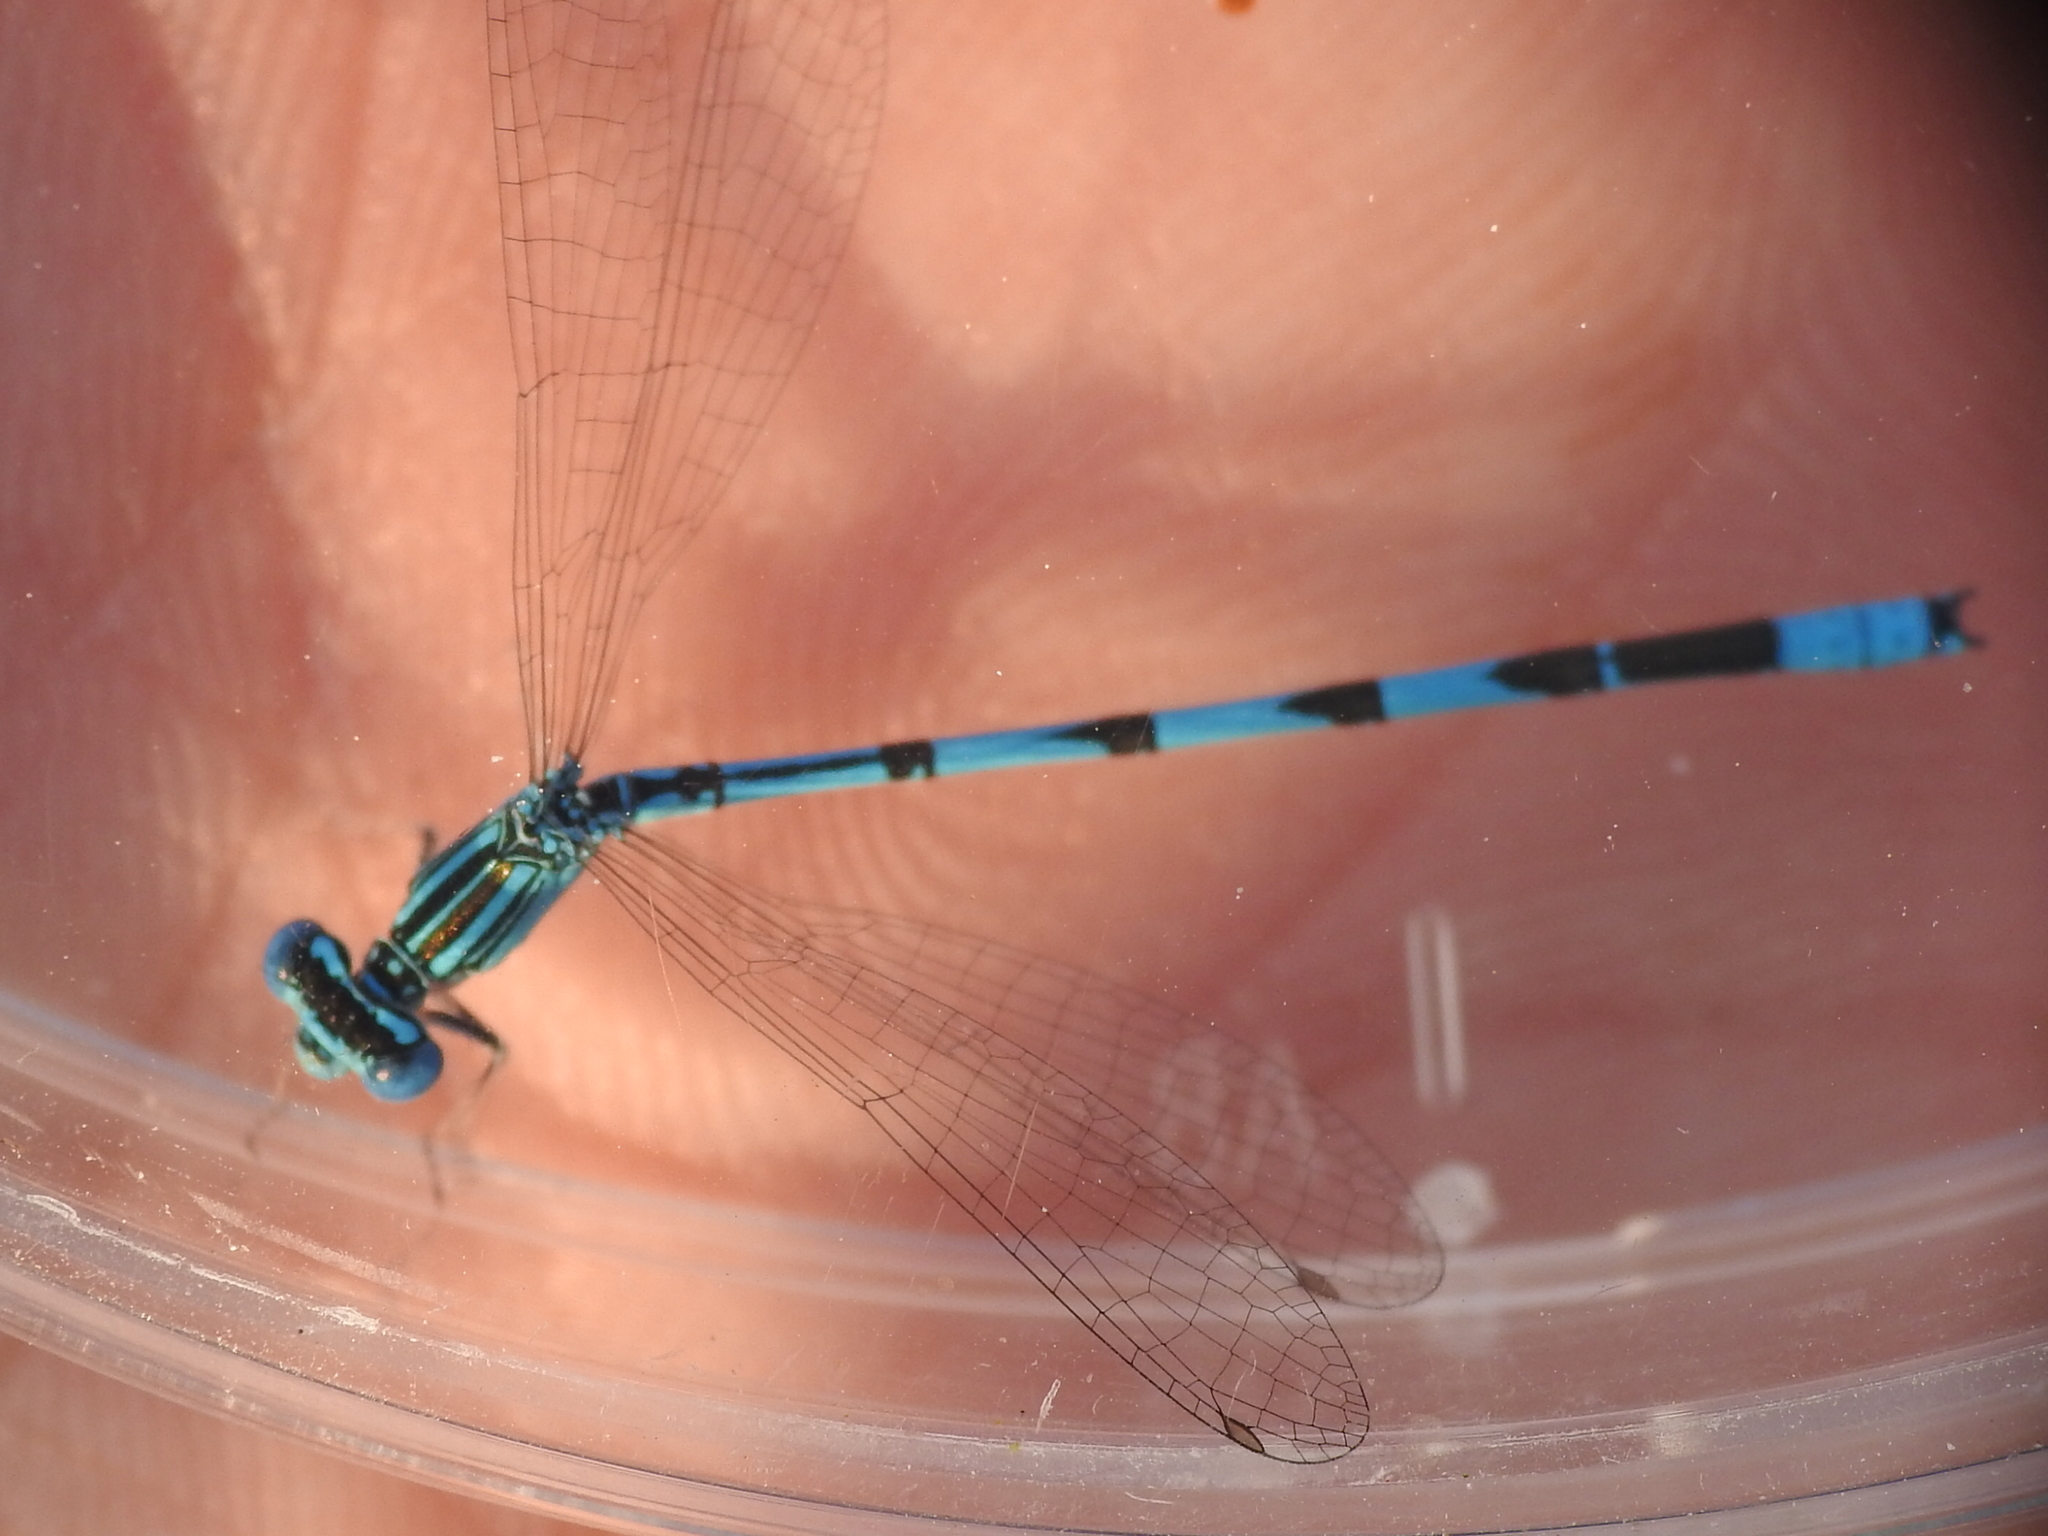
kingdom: Animalia
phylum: Arthropoda
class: Insecta
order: Odonata
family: Coenagrionidae
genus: Enallagma
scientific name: Enallagma basidens
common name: Double-striped bluet
